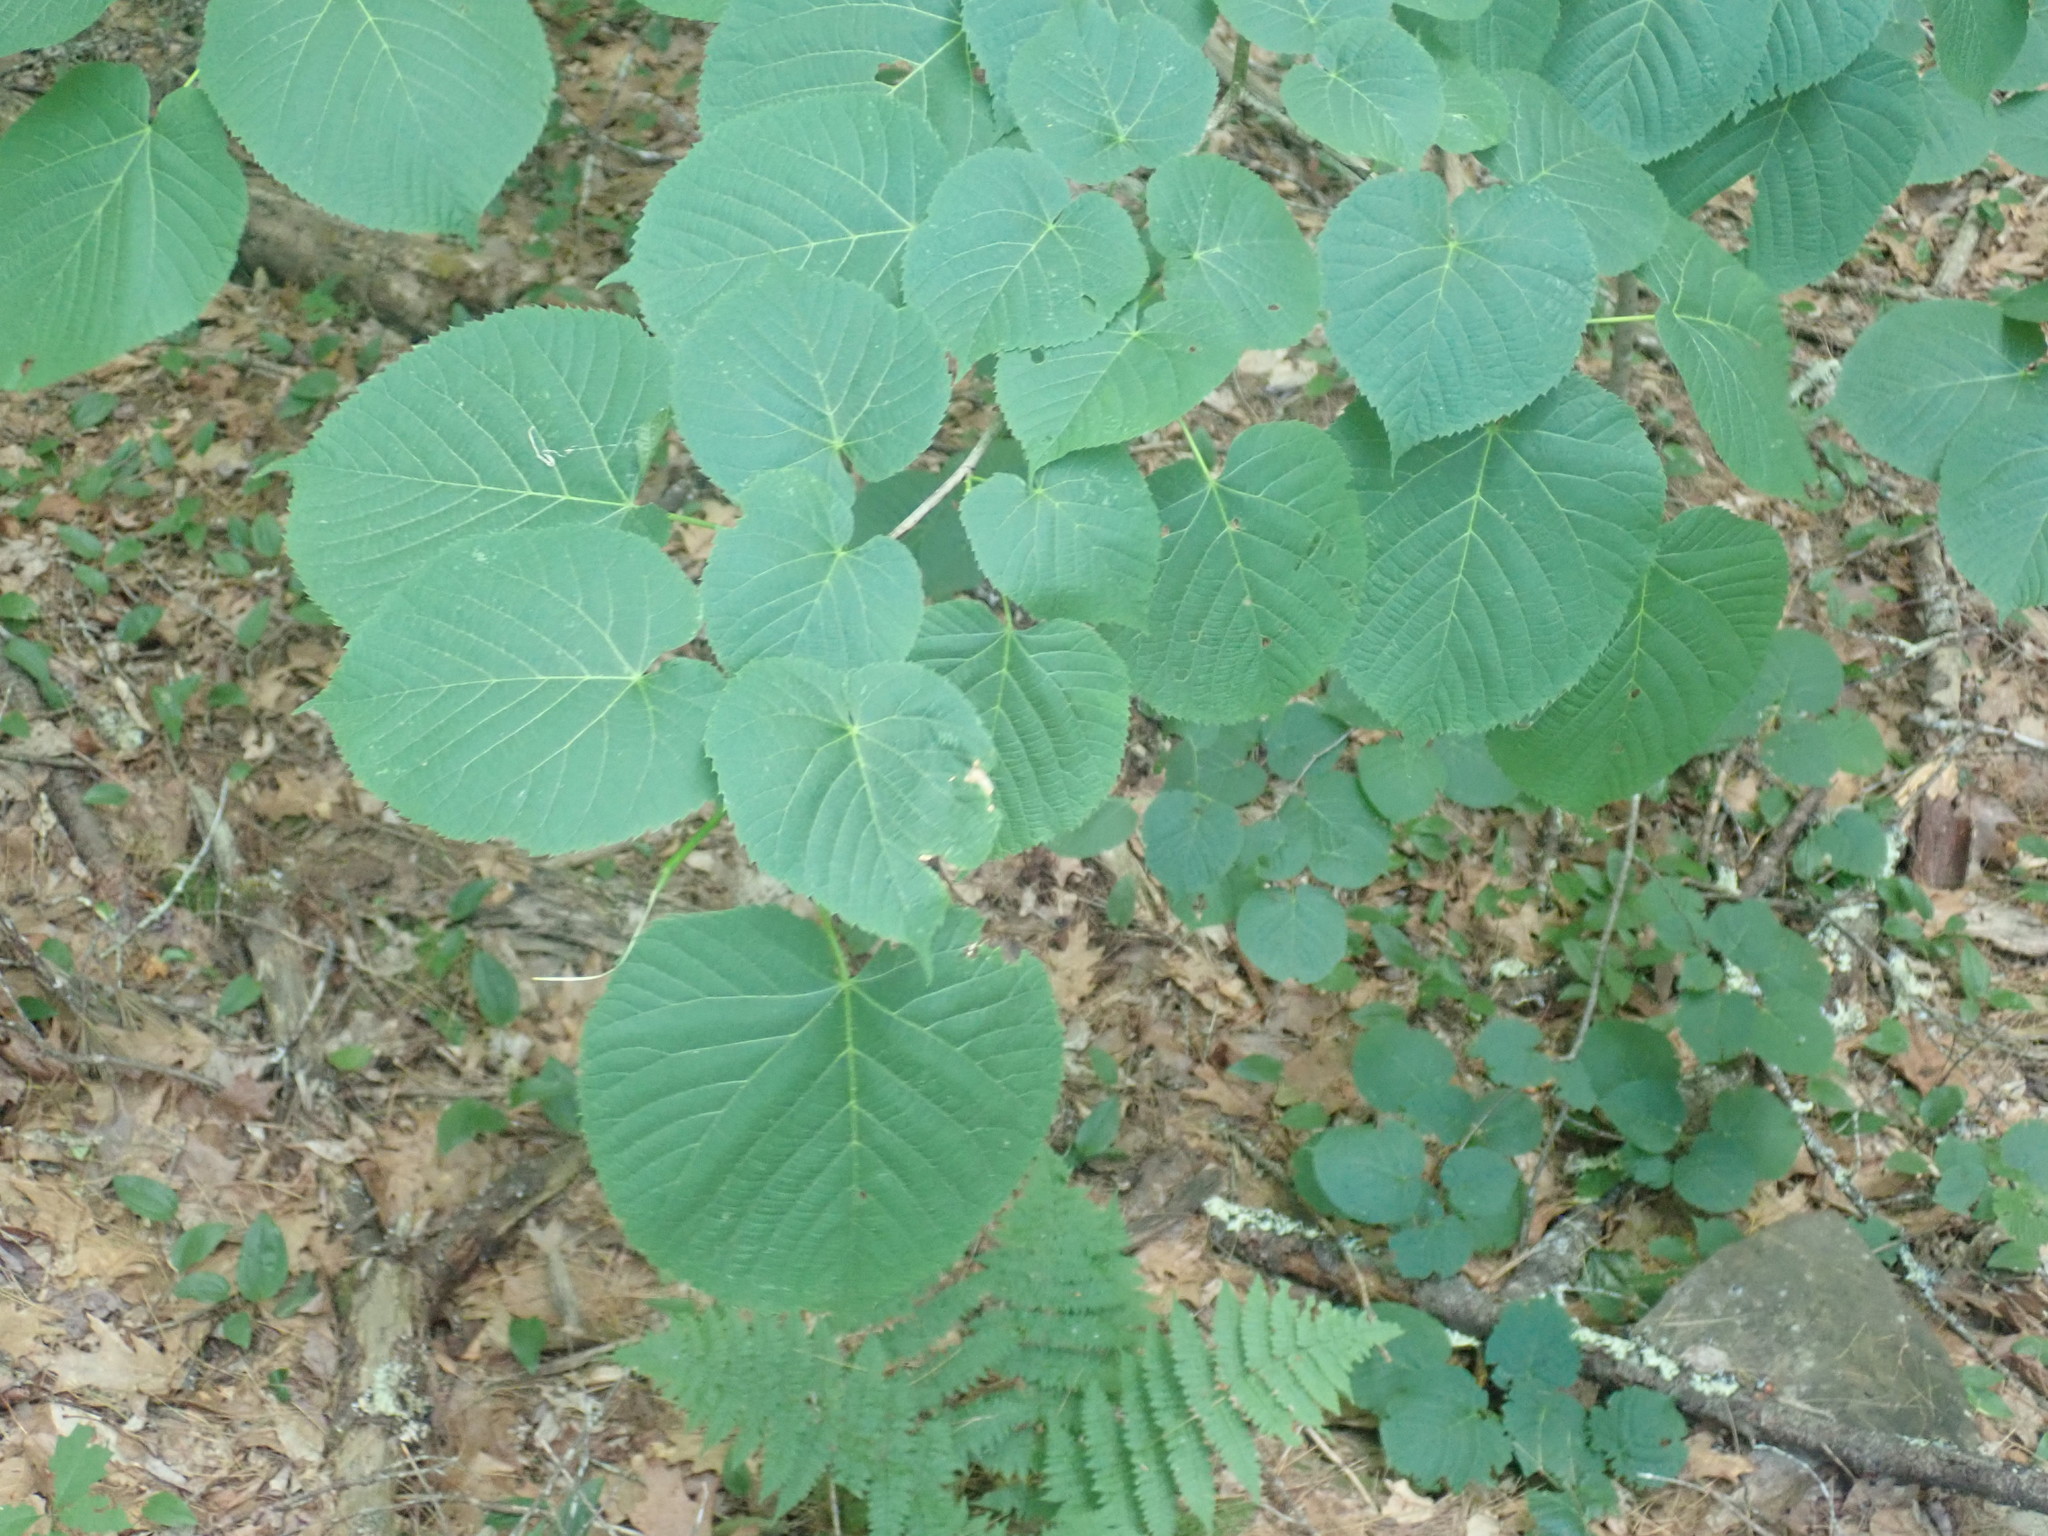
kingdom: Plantae
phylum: Tracheophyta
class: Magnoliopsida
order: Malvales
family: Malvaceae
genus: Tilia
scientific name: Tilia americana
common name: Basswood
